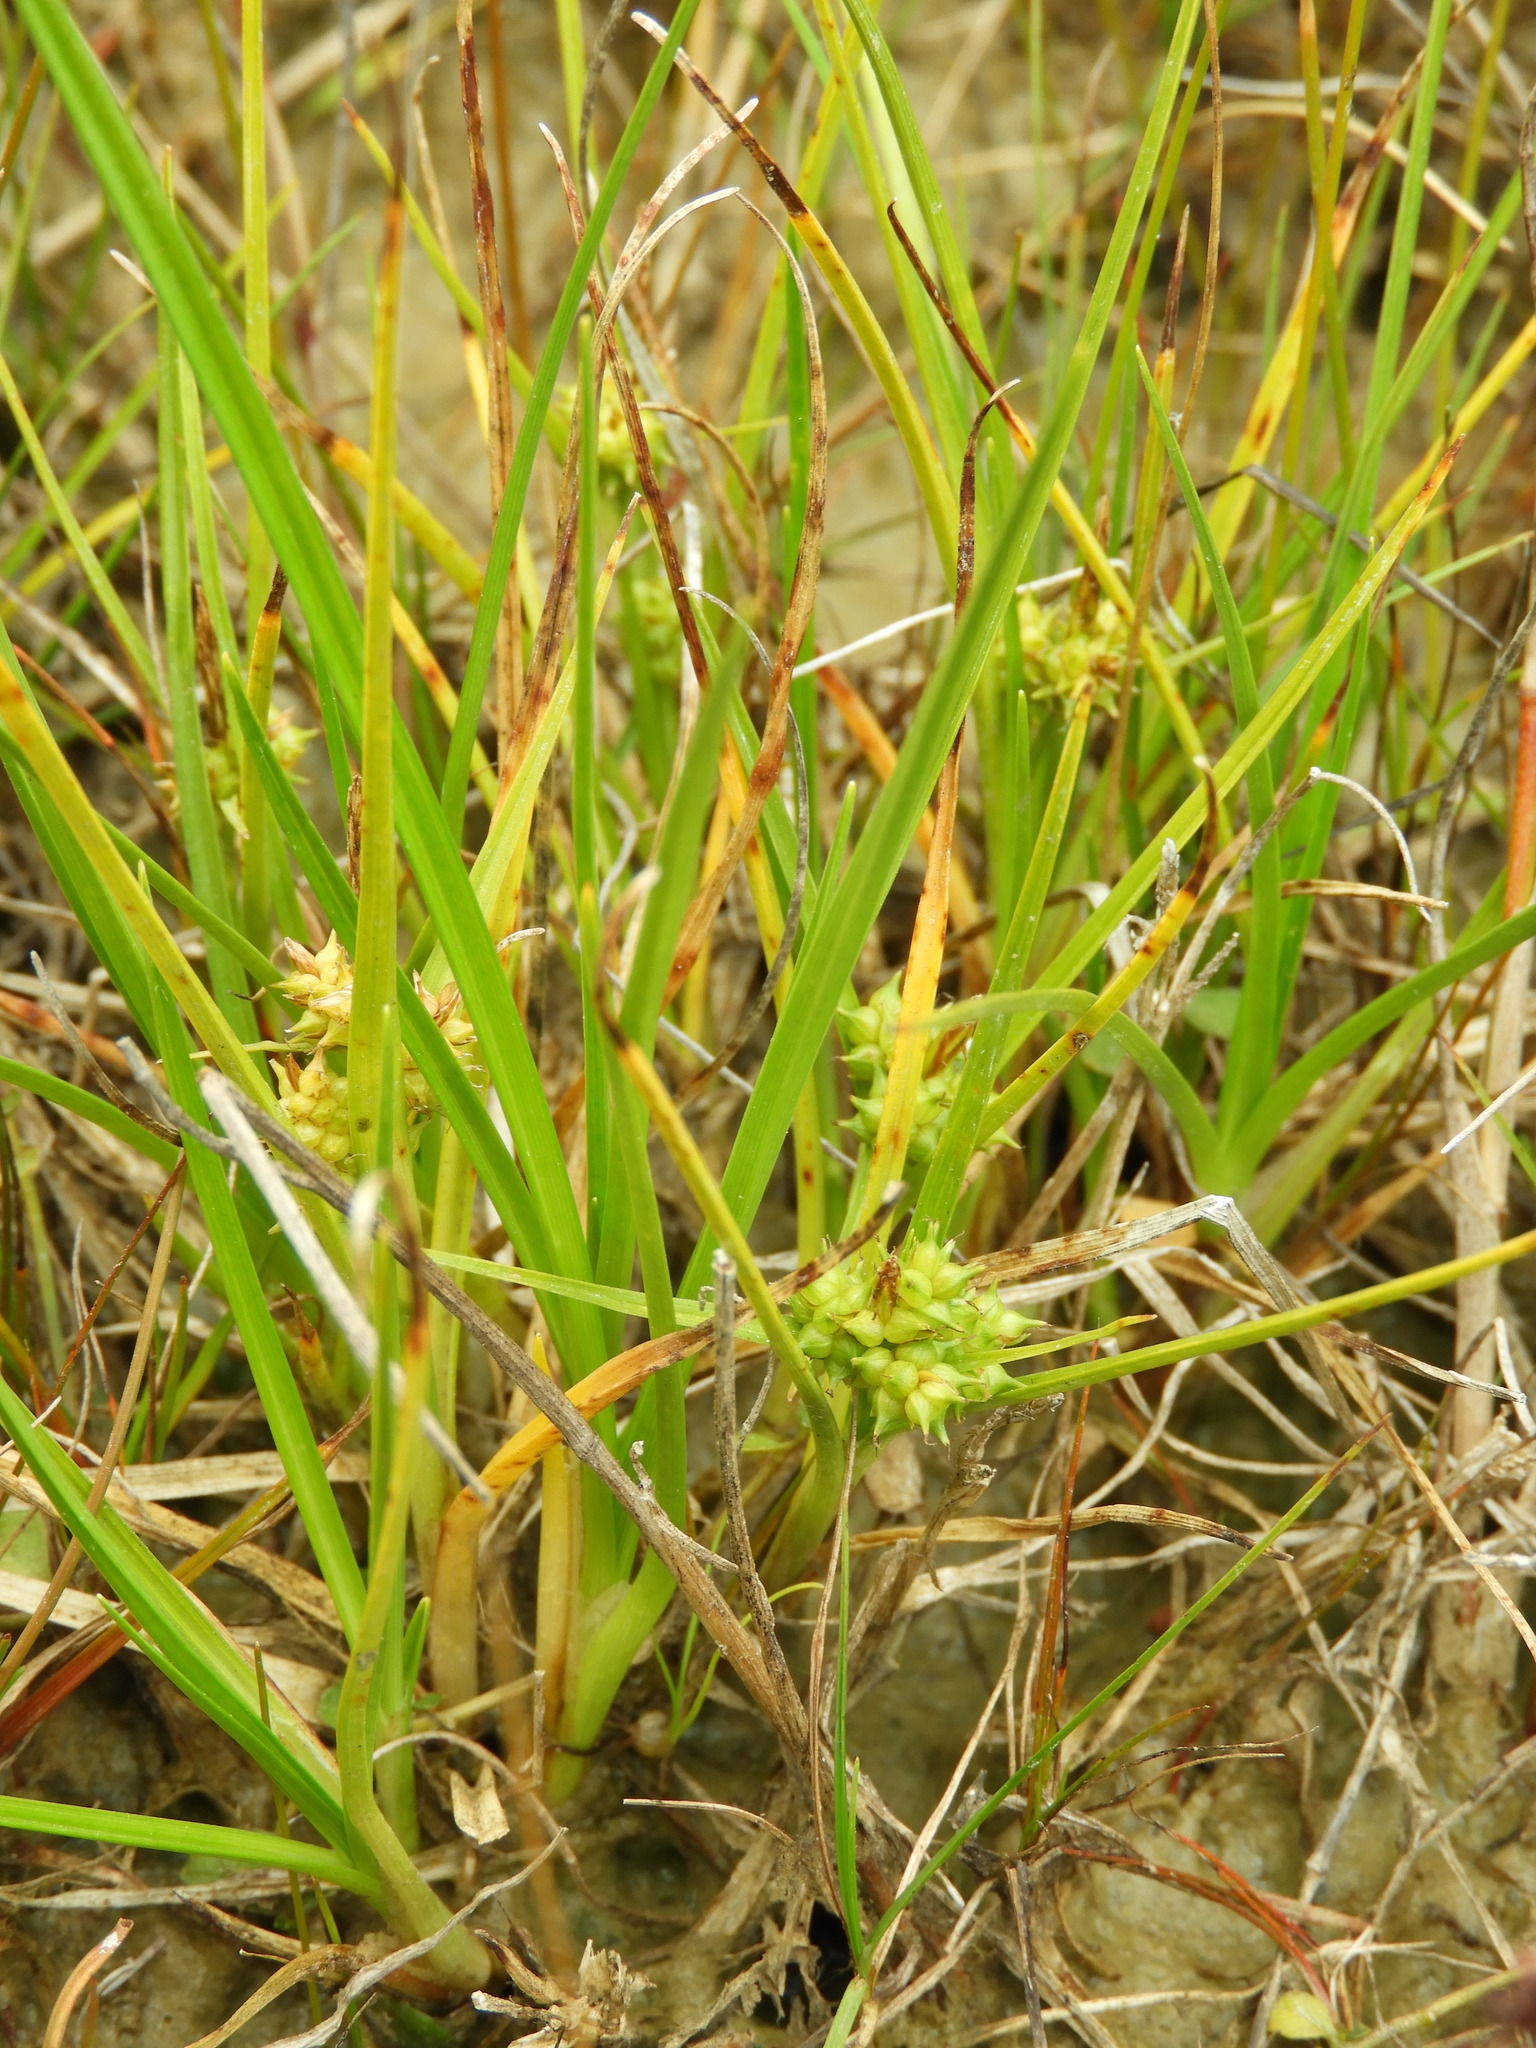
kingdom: Plantae
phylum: Tracheophyta
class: Liliopsida
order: Poales
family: Cyperaceae
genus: Carex
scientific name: Carex flaviformis
